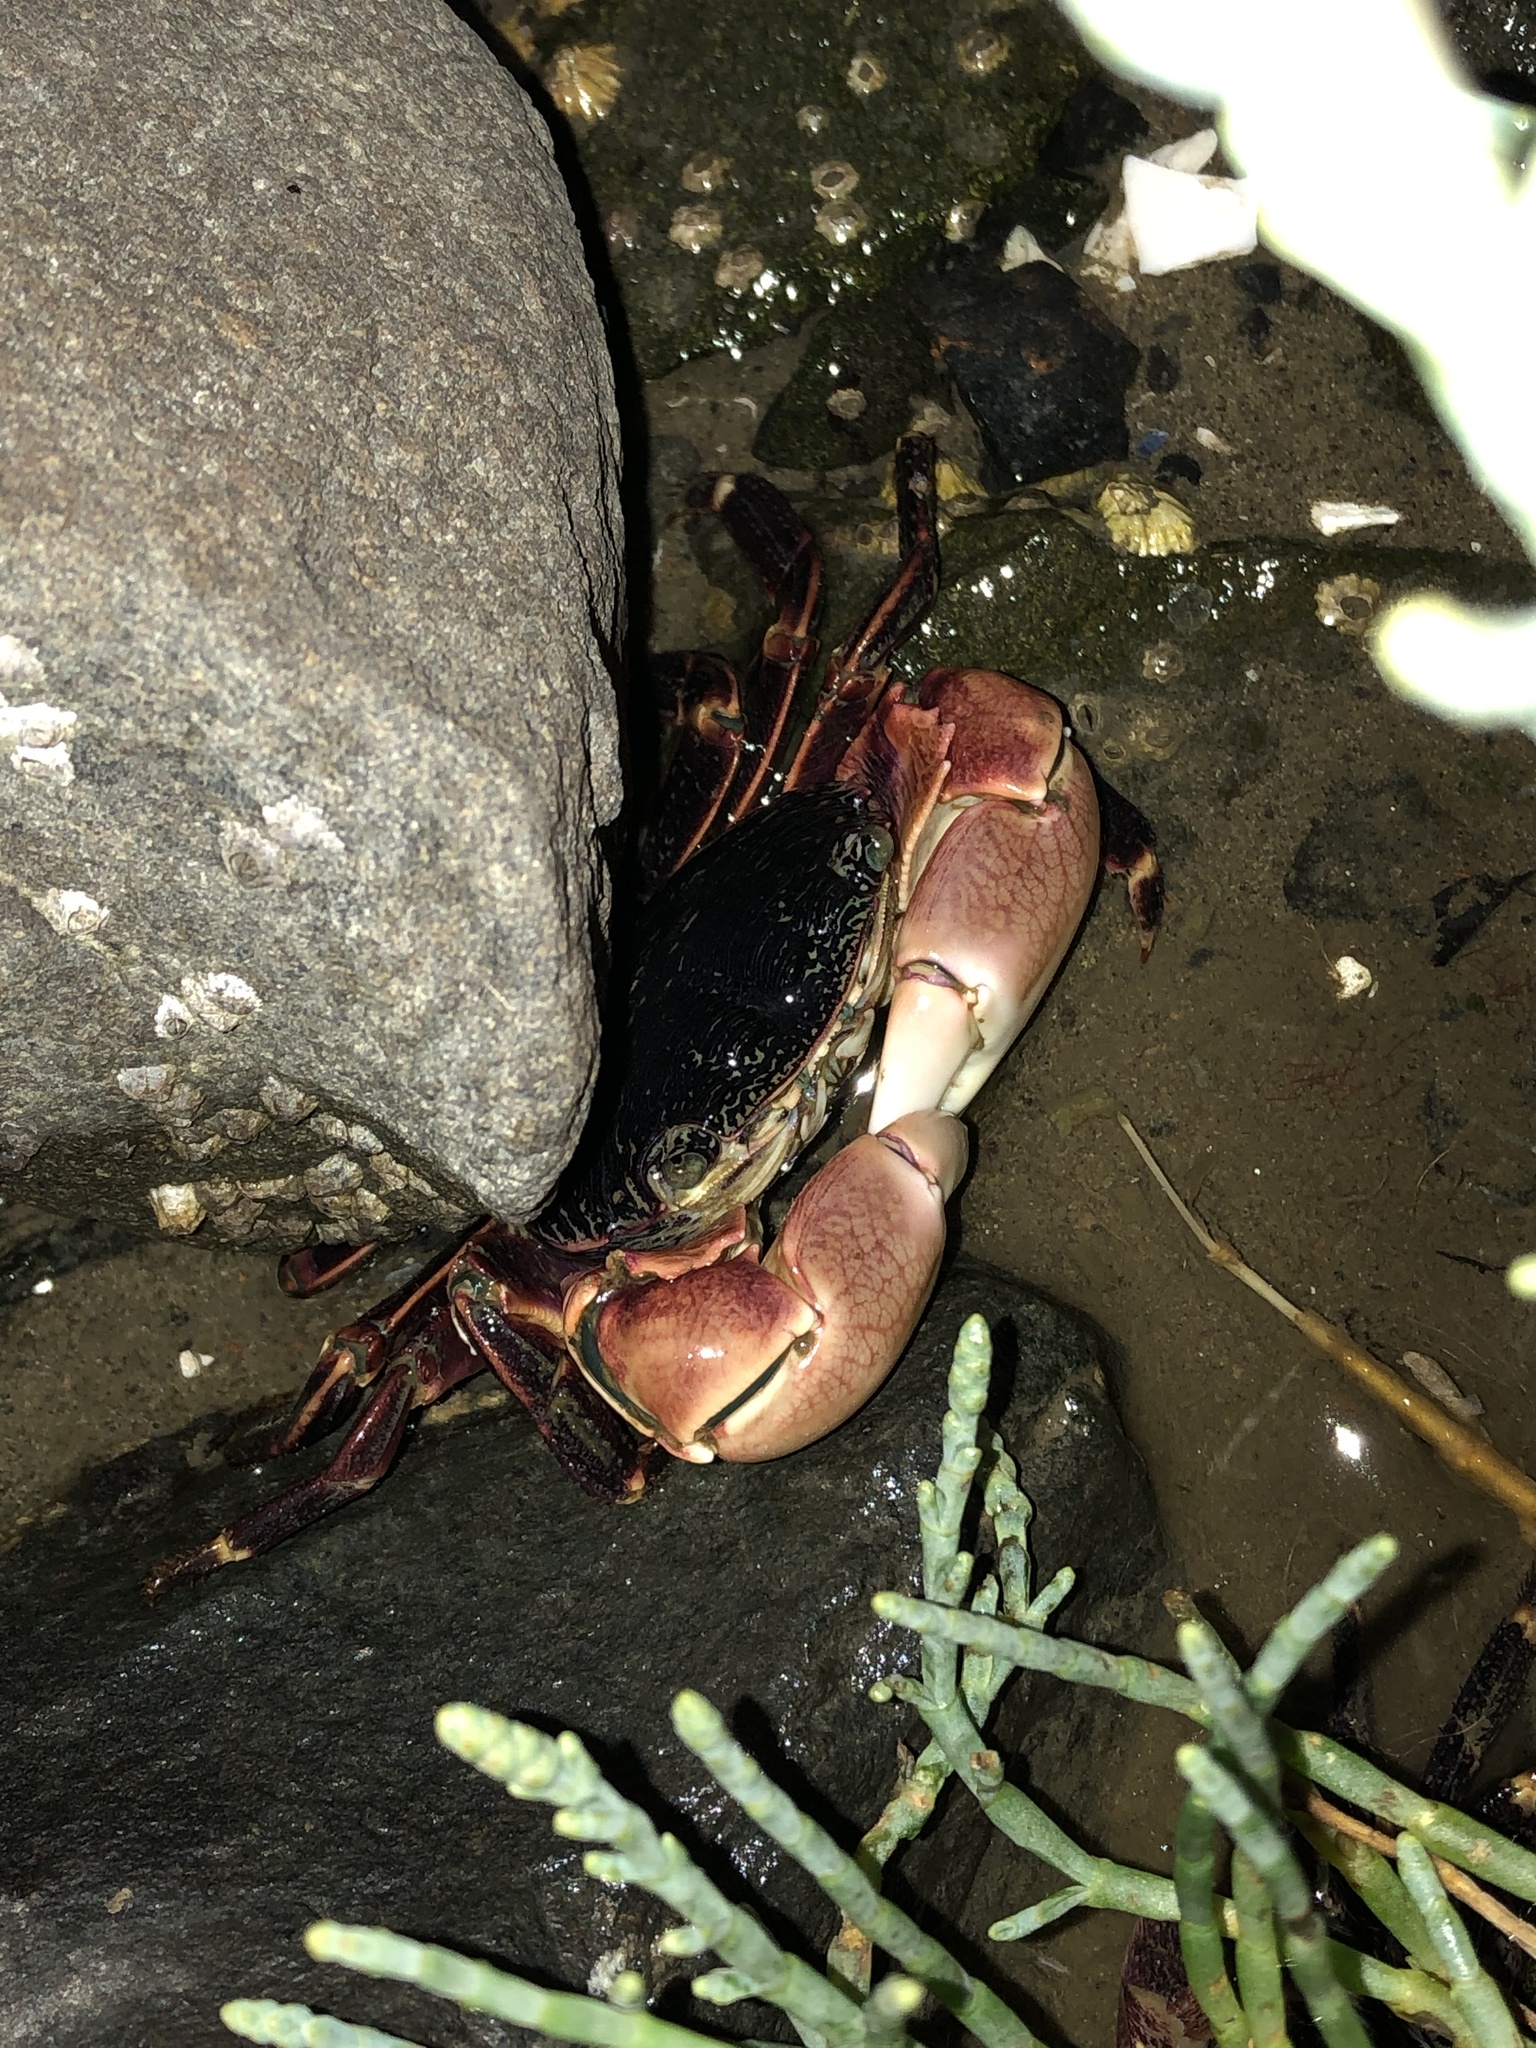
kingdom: Animalia
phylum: Arthropoda
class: Malacostraca
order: Decapoda
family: Grapsidae
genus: Pachygrapsus
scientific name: Pachygrapsus crassipes
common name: Striped shore crab
